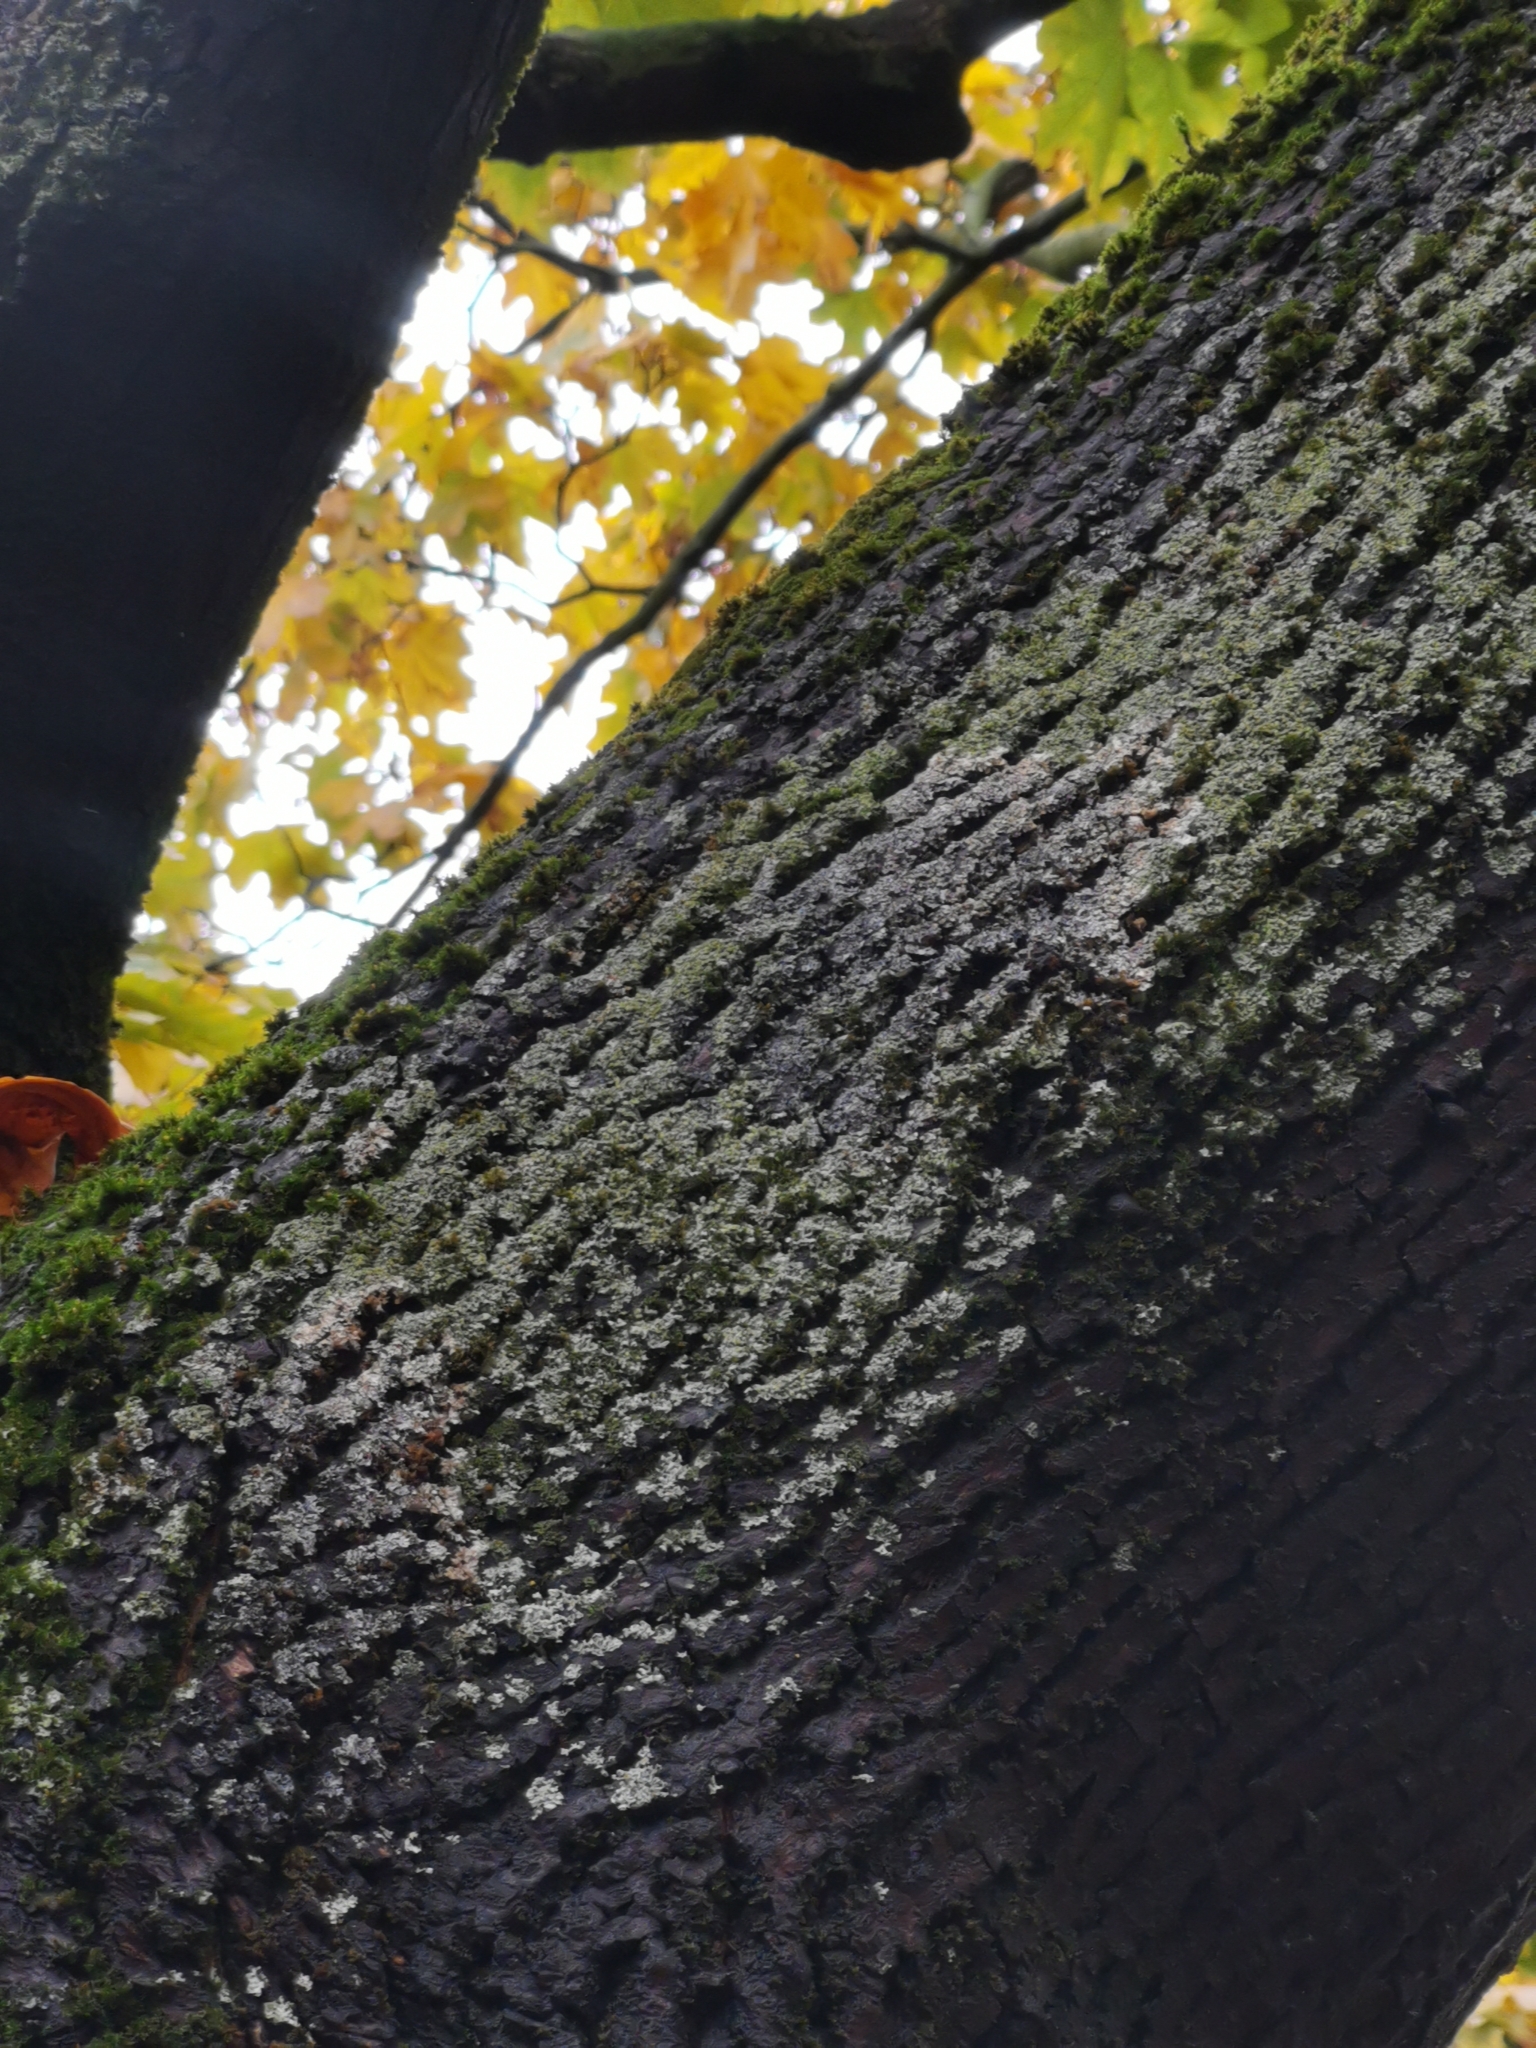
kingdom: Fungi
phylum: Basidiomycota
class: Agaricomycetes
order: Atheliales
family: Atheliaceae
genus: Athelia
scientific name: Athelia arachnoidea
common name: Candelabra duster
